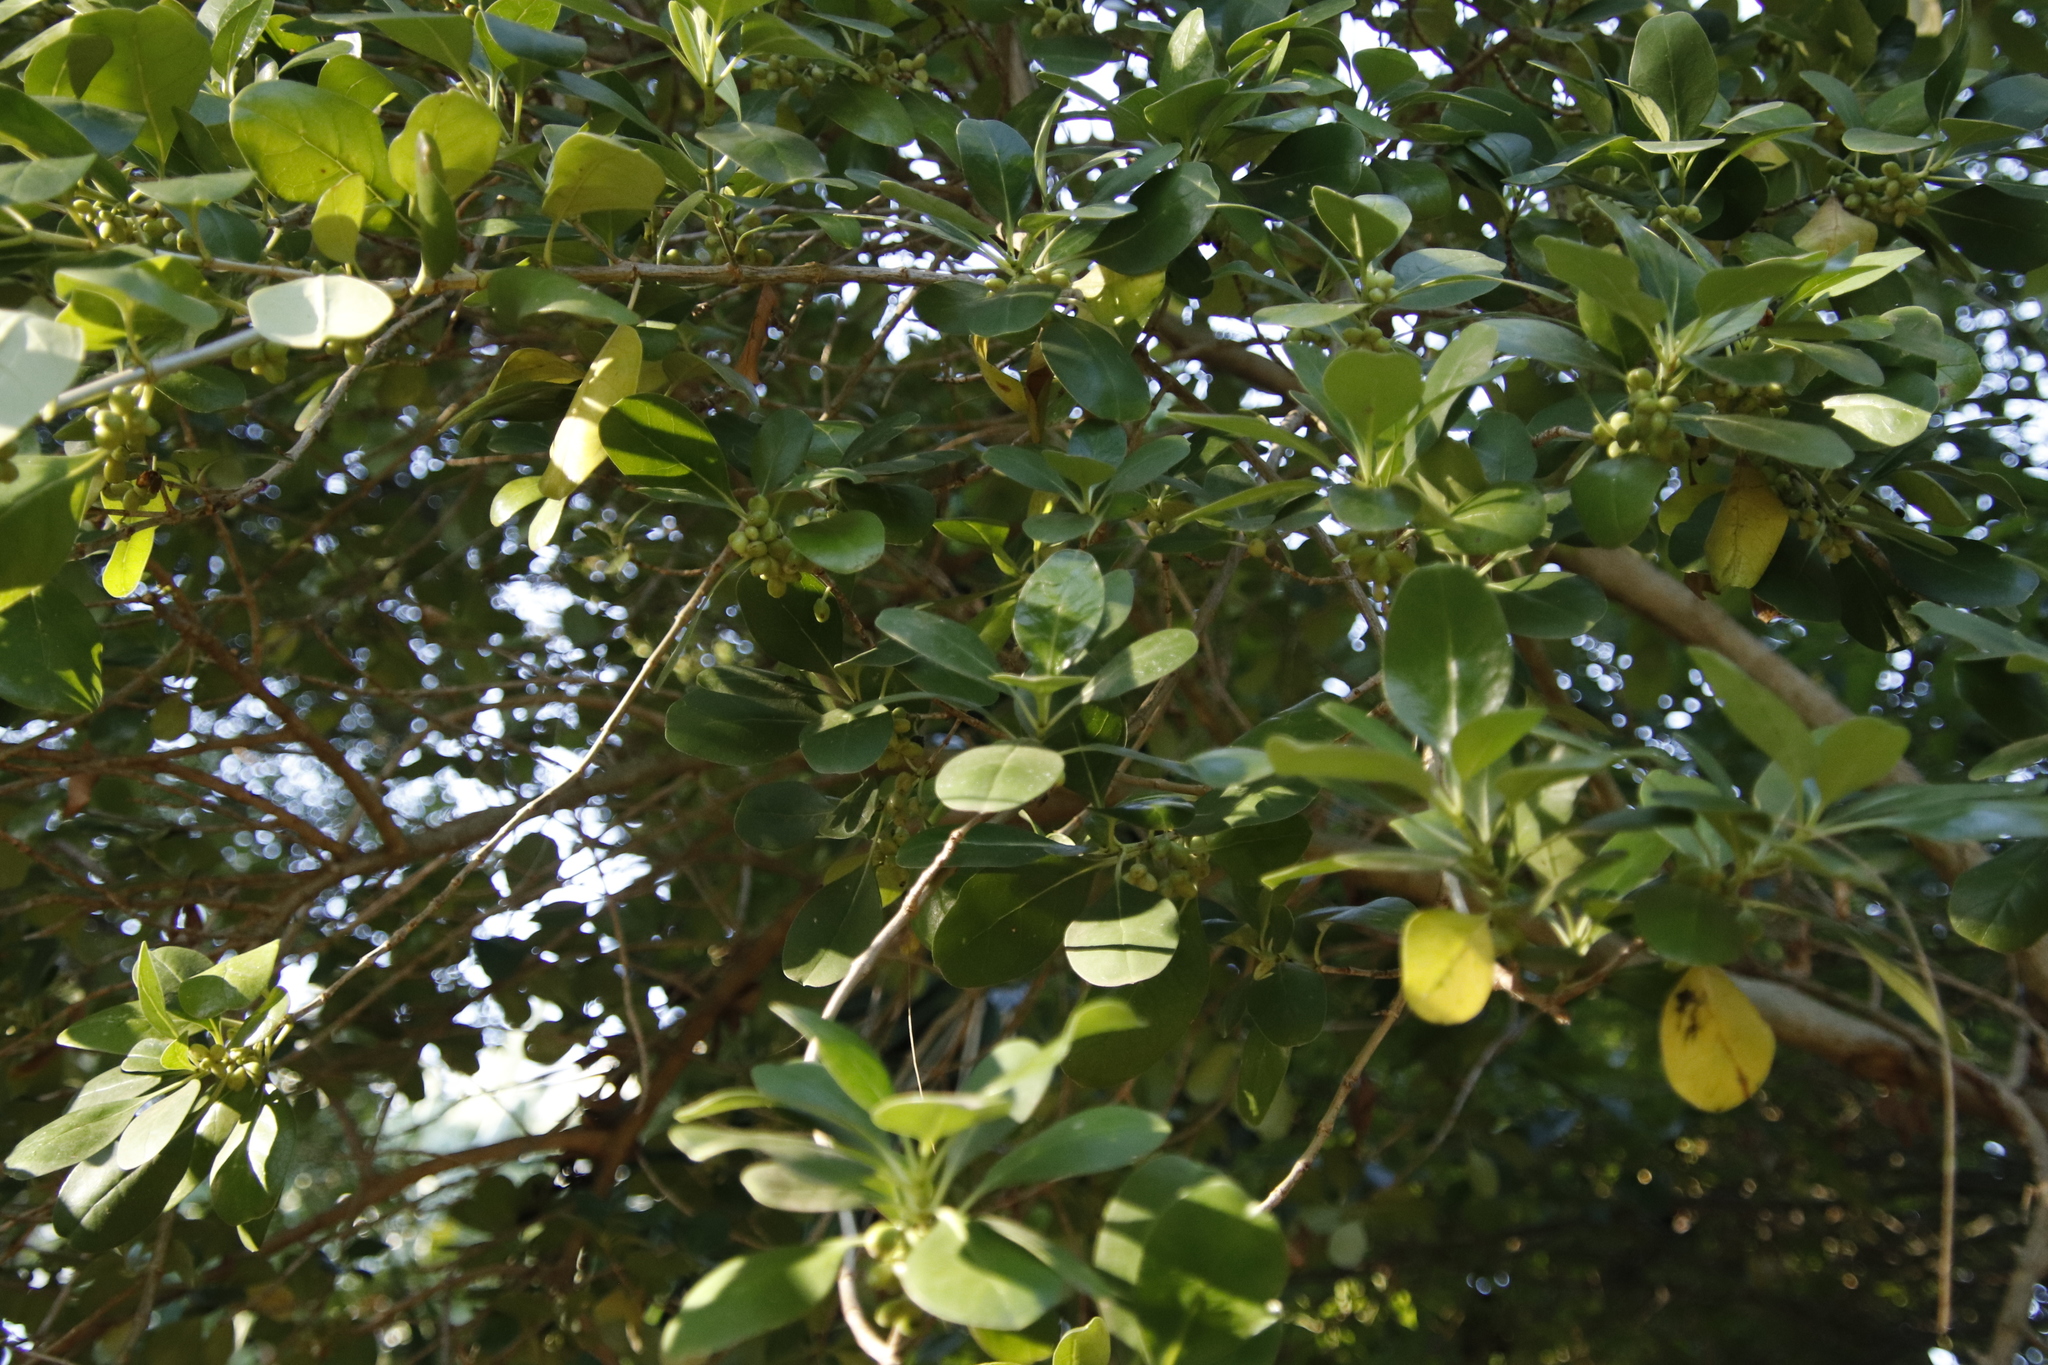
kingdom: Plantae
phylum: Tracheophyta
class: Magnoliopsida
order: Gentianales
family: Rubiaceae
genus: Coprosma
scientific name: Coprosma repens
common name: Tree bedstraw
